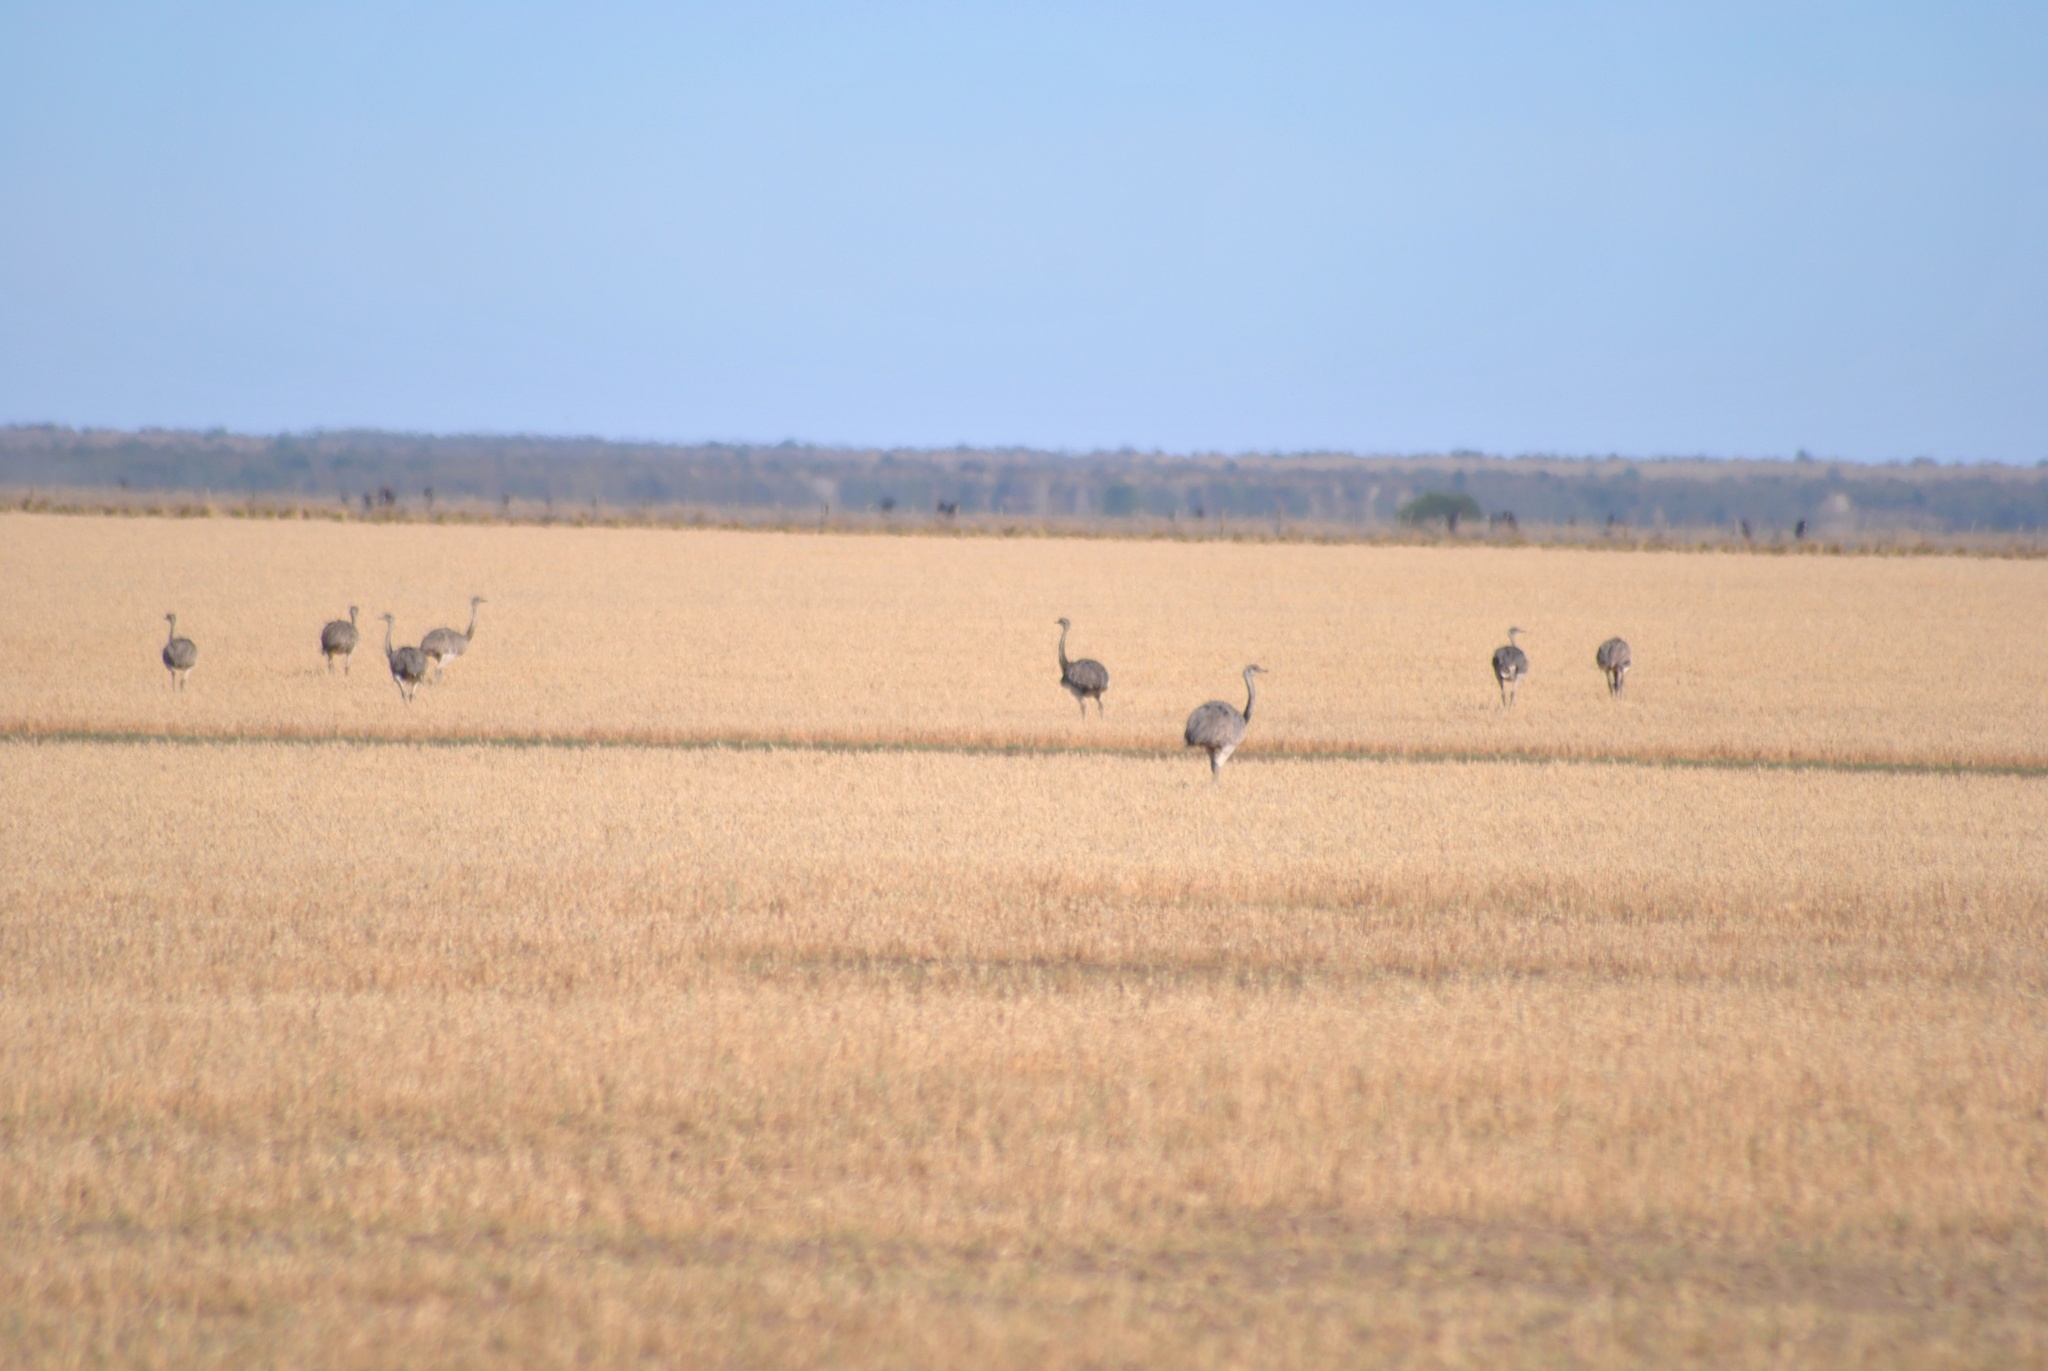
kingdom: Animalia
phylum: Chordata
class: Aves
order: Rheiformes
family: Rheidae
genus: Rhea
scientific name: Rhea americana
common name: Greater rhea
